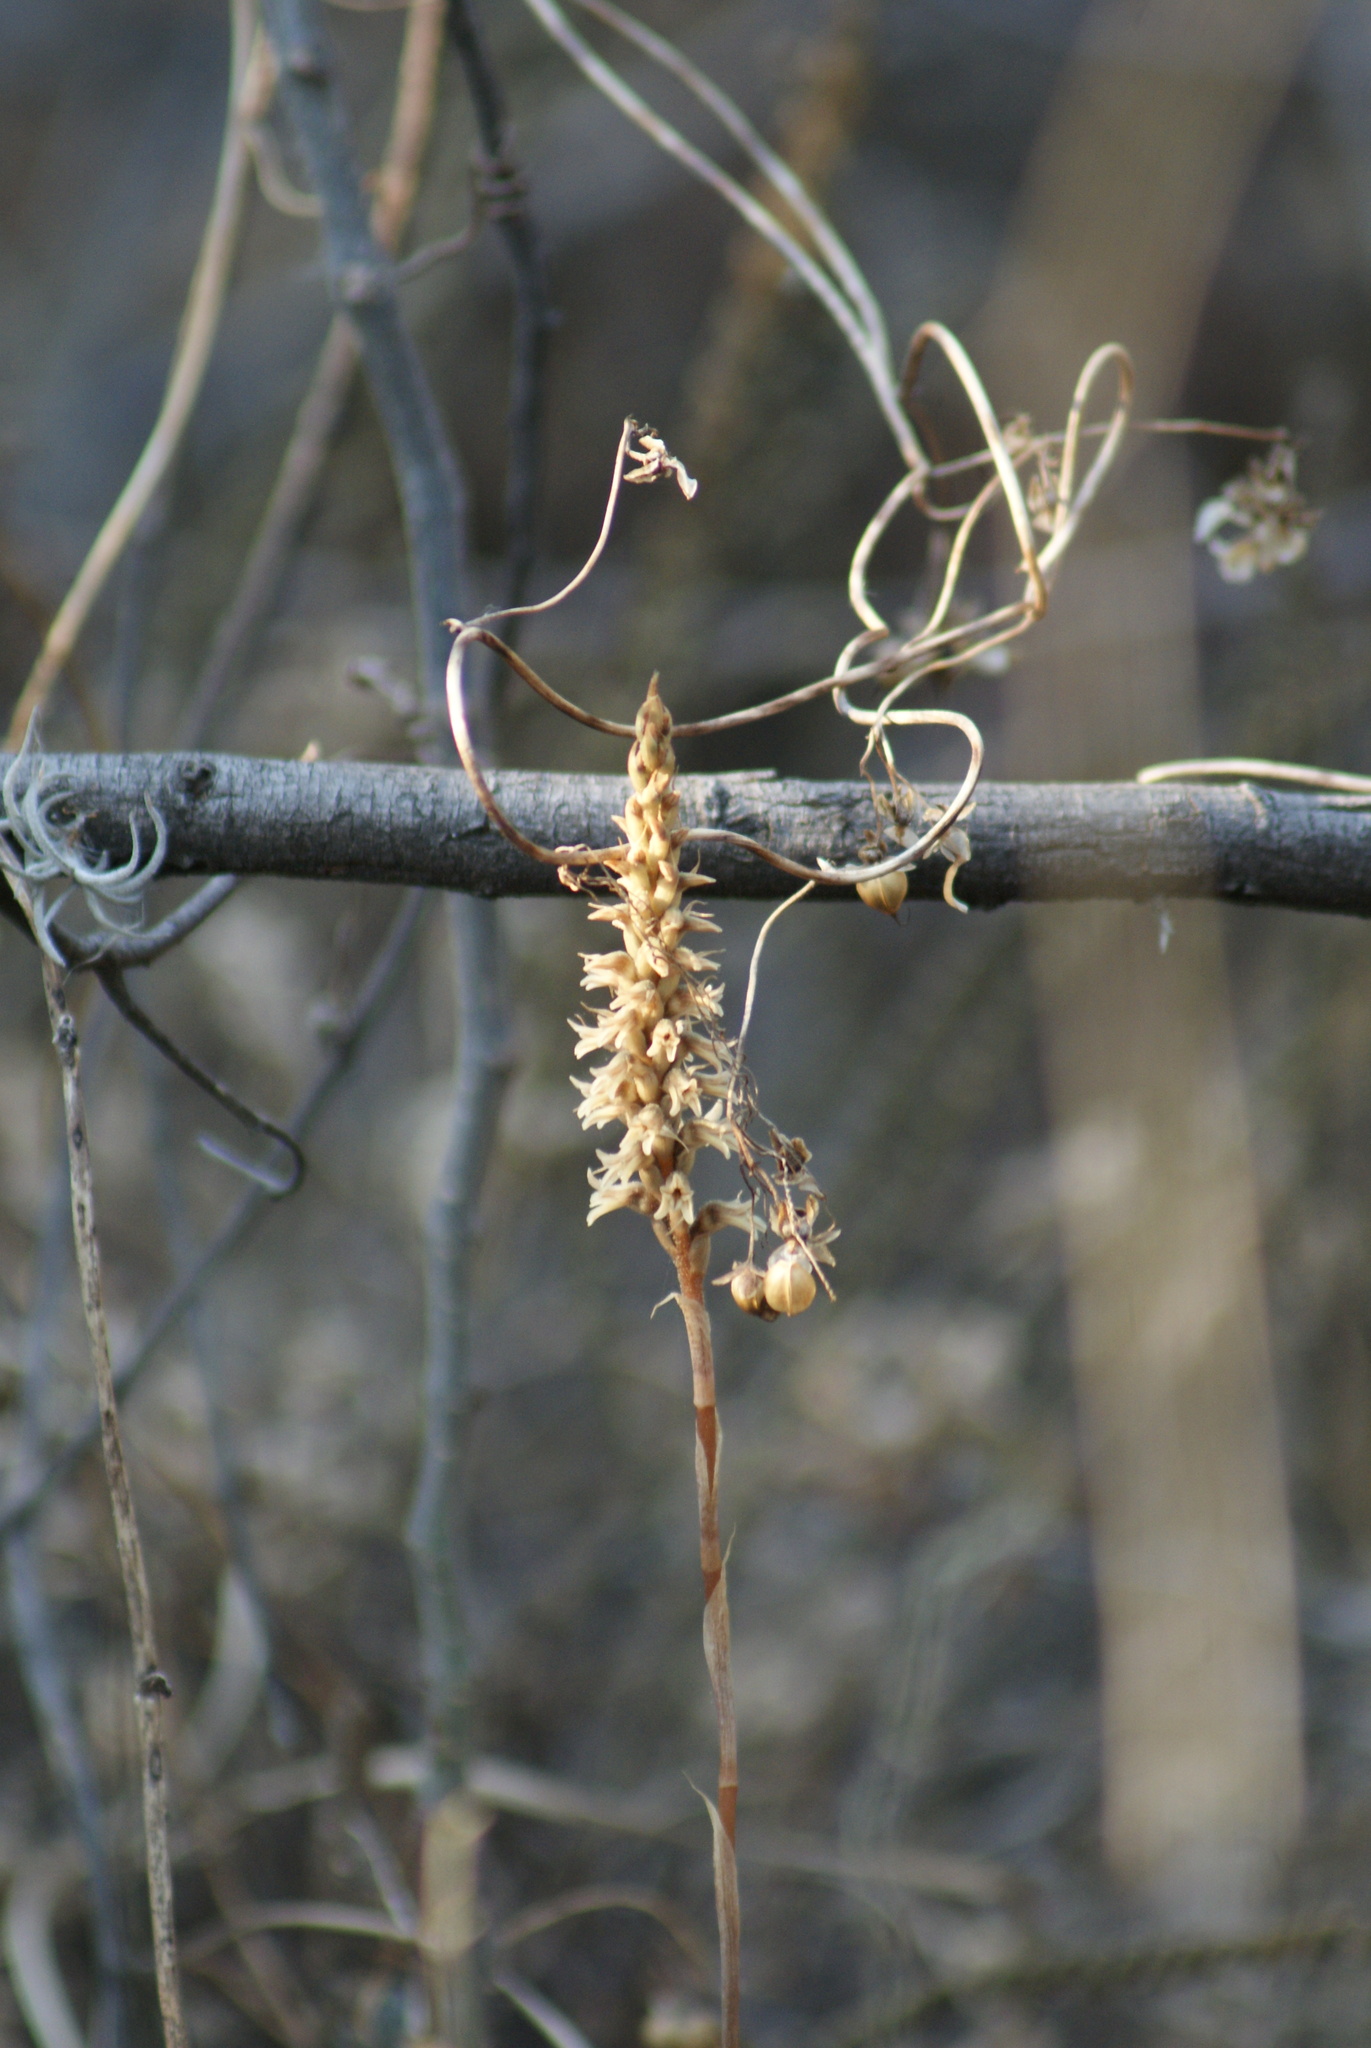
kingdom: Plantae
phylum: Tracheophyta
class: Liliopsida
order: Asparagales
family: Orchidaceae
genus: Aulosepalum
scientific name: Aulosepalum pyramidale
